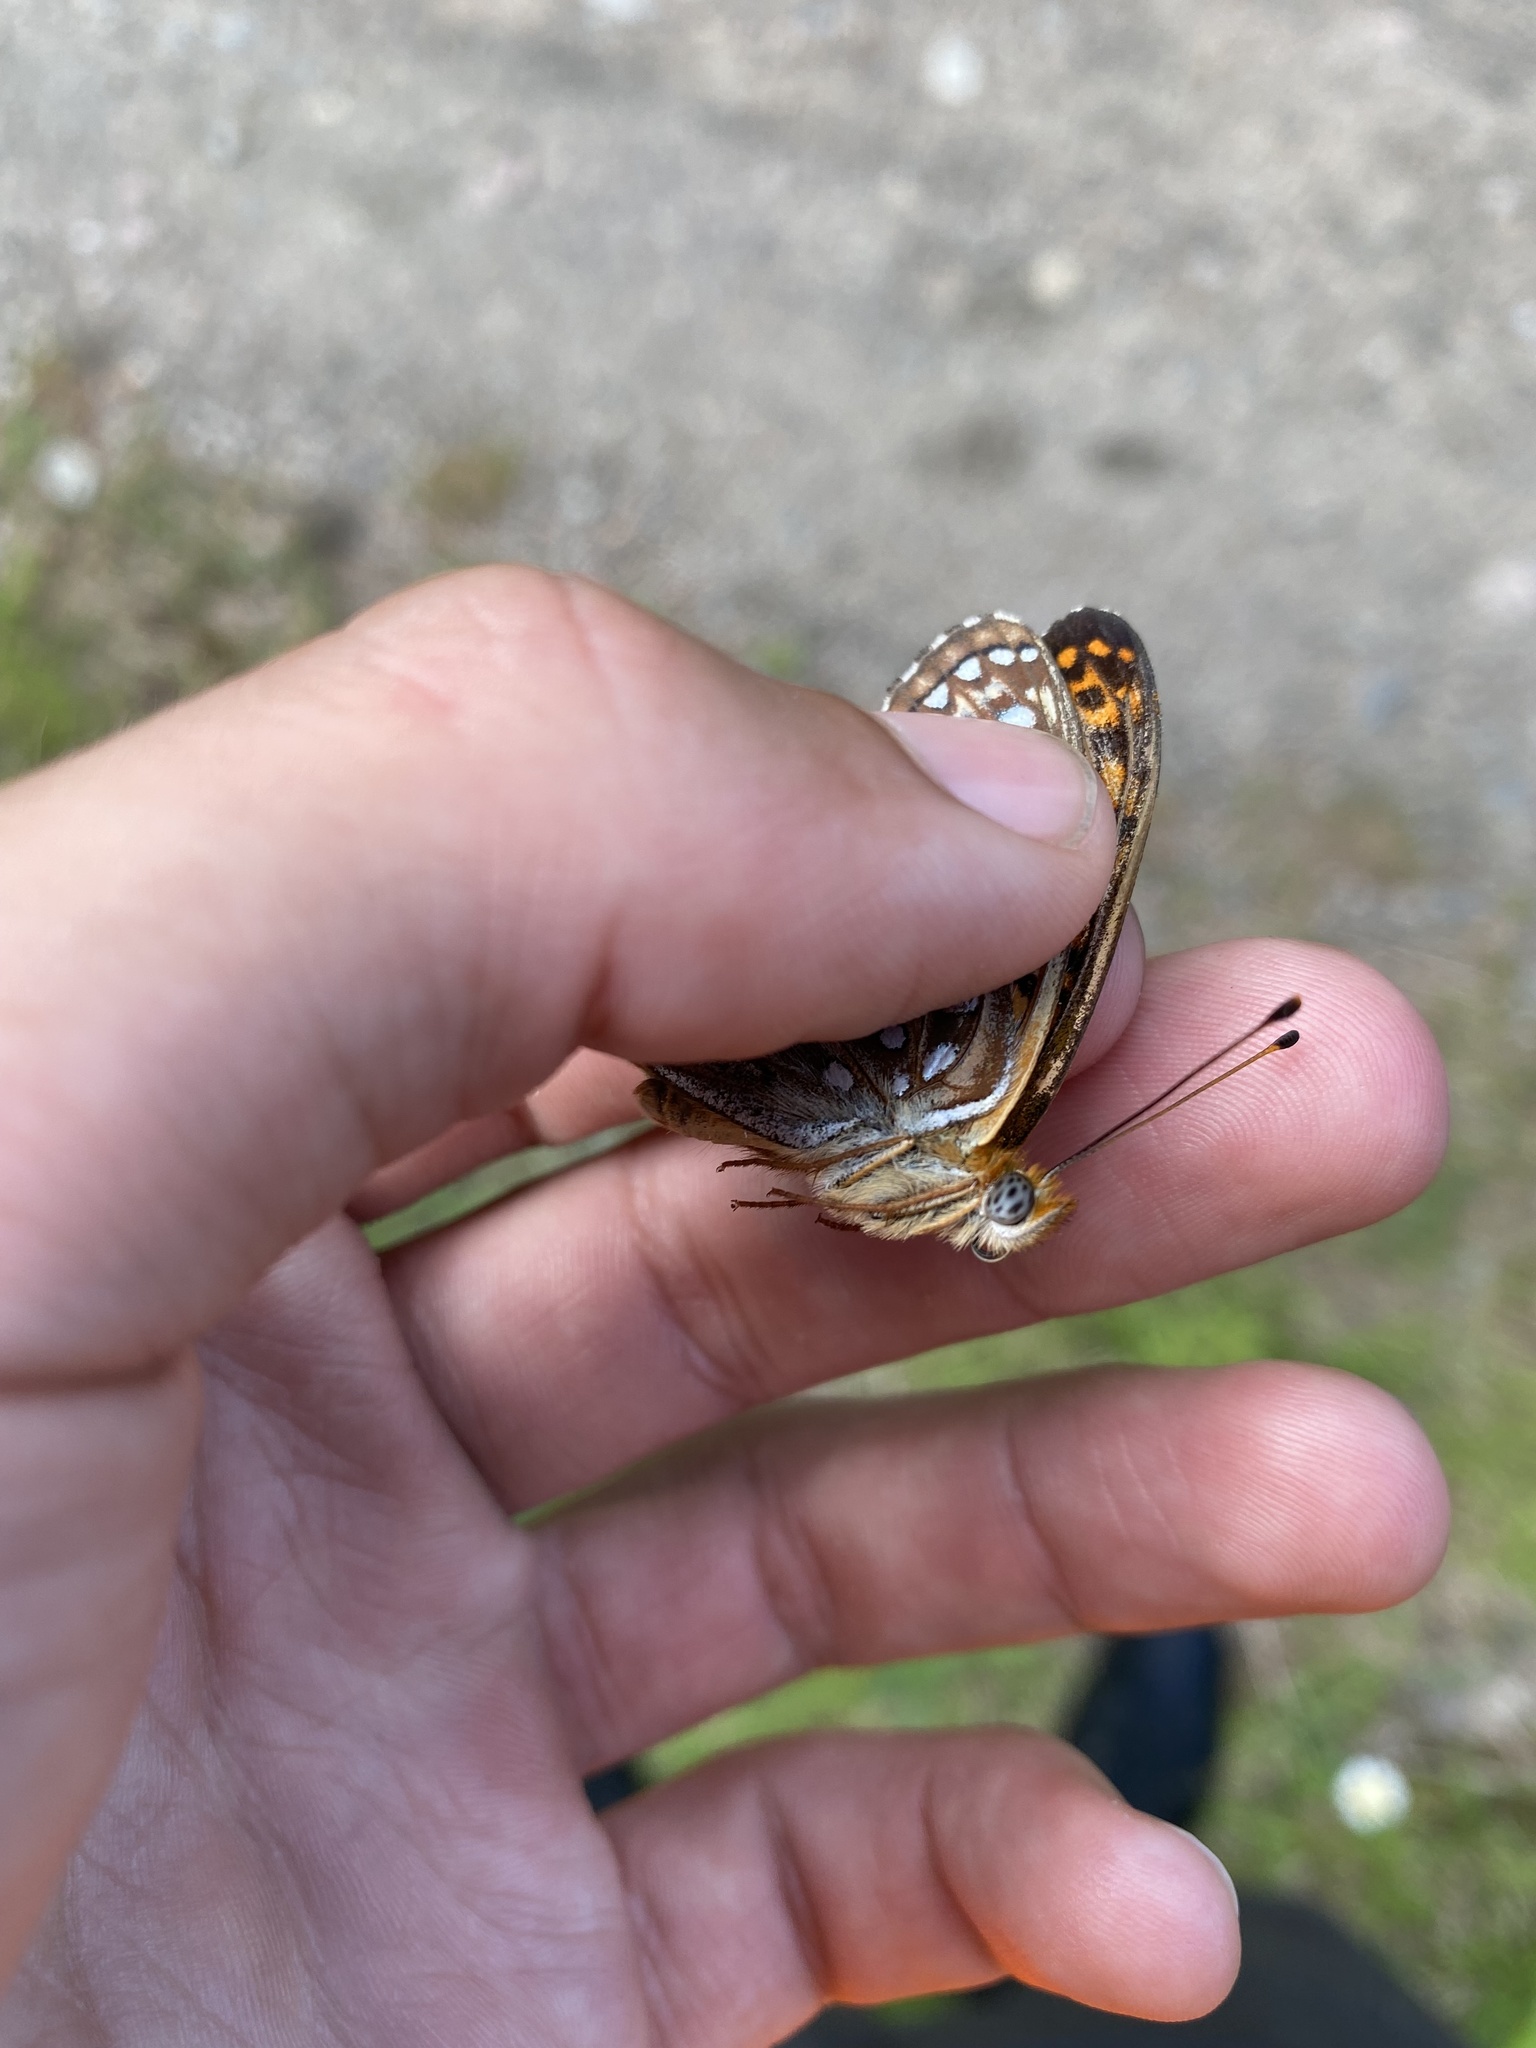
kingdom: Animalia
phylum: Arthropoda
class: Insecta
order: Lepidoptera
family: Nymphalidae
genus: Speyeria
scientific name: Speyeria atlantis
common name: Atlantis fritillary
